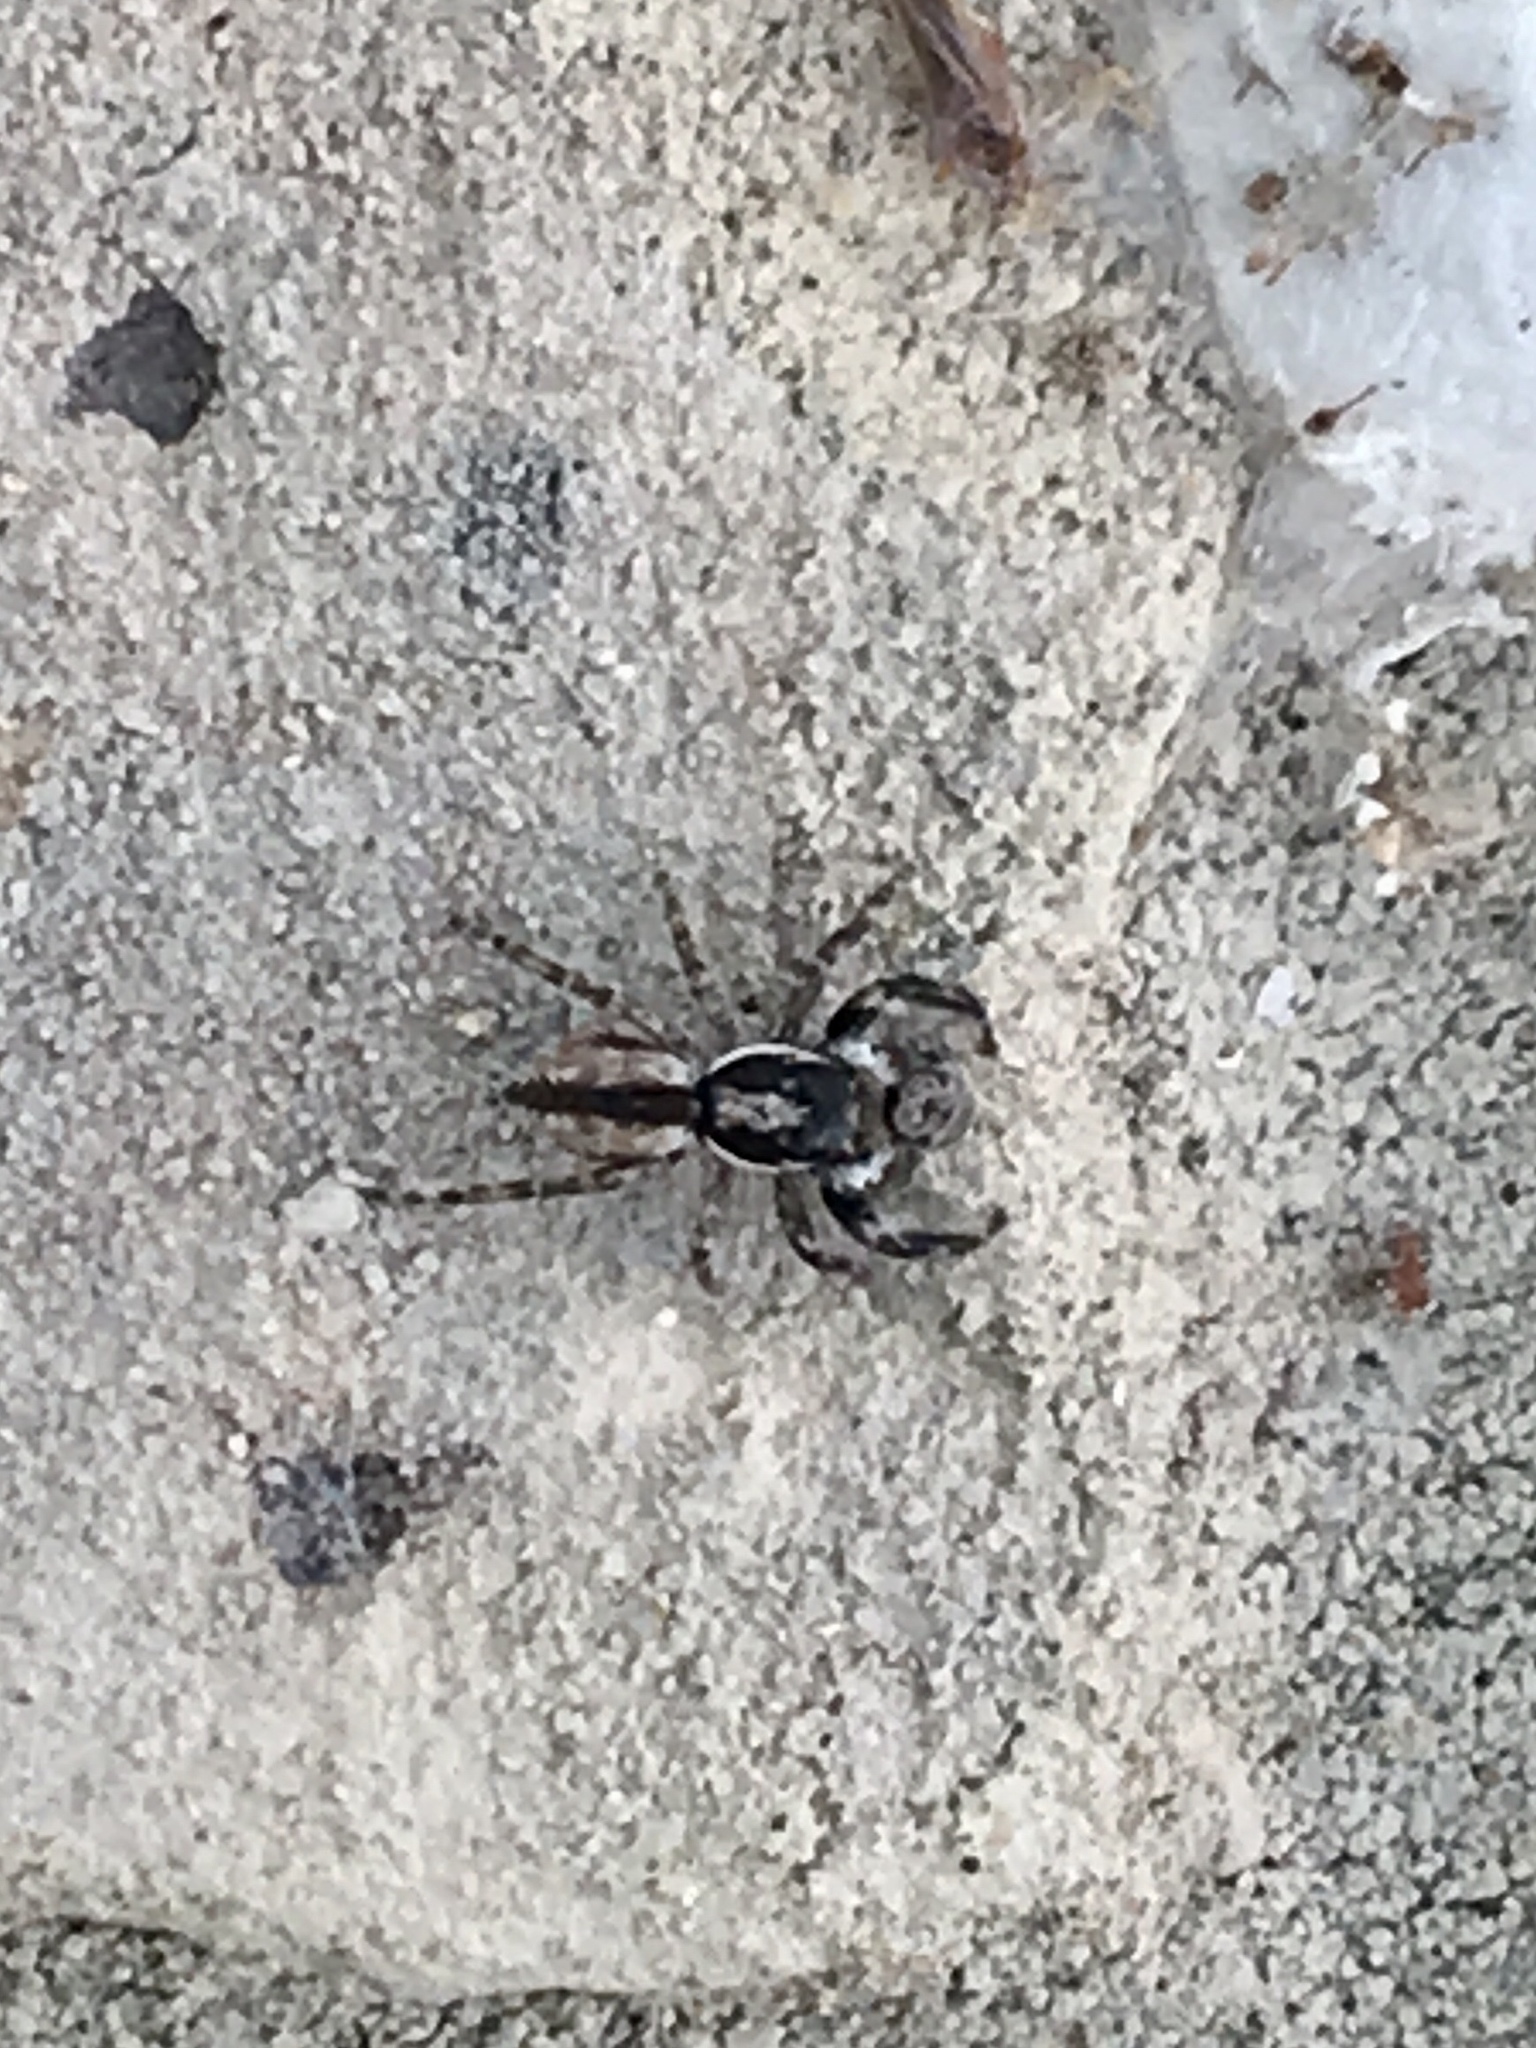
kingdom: Animalia
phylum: Arthropoda
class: Arachnida
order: Araneae
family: Salticidae
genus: Menemerus
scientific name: Menemerus bivittatus
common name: Gray wall jumper
